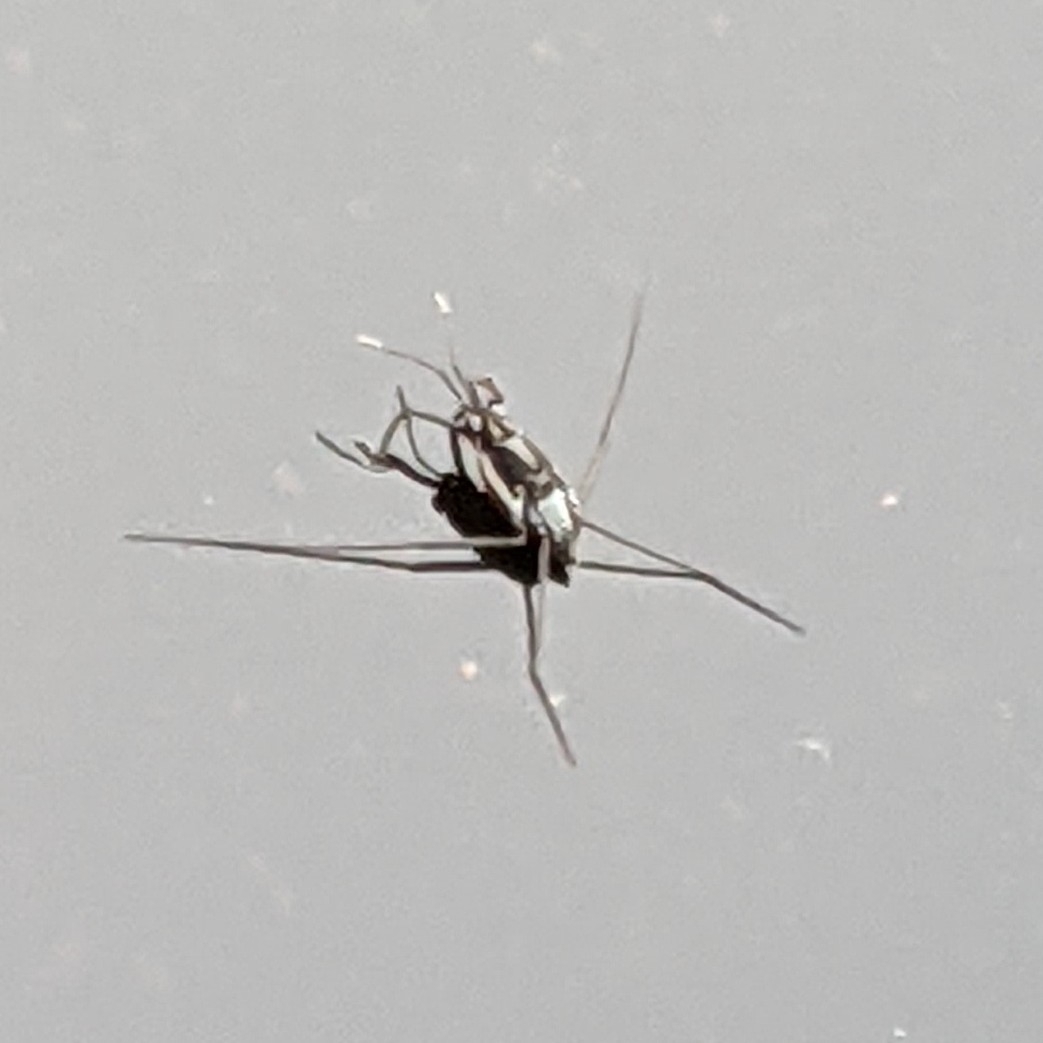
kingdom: Animalia
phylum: Arthropoda
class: Insecta
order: Hemiptera
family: Gerridae
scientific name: Gerridae
